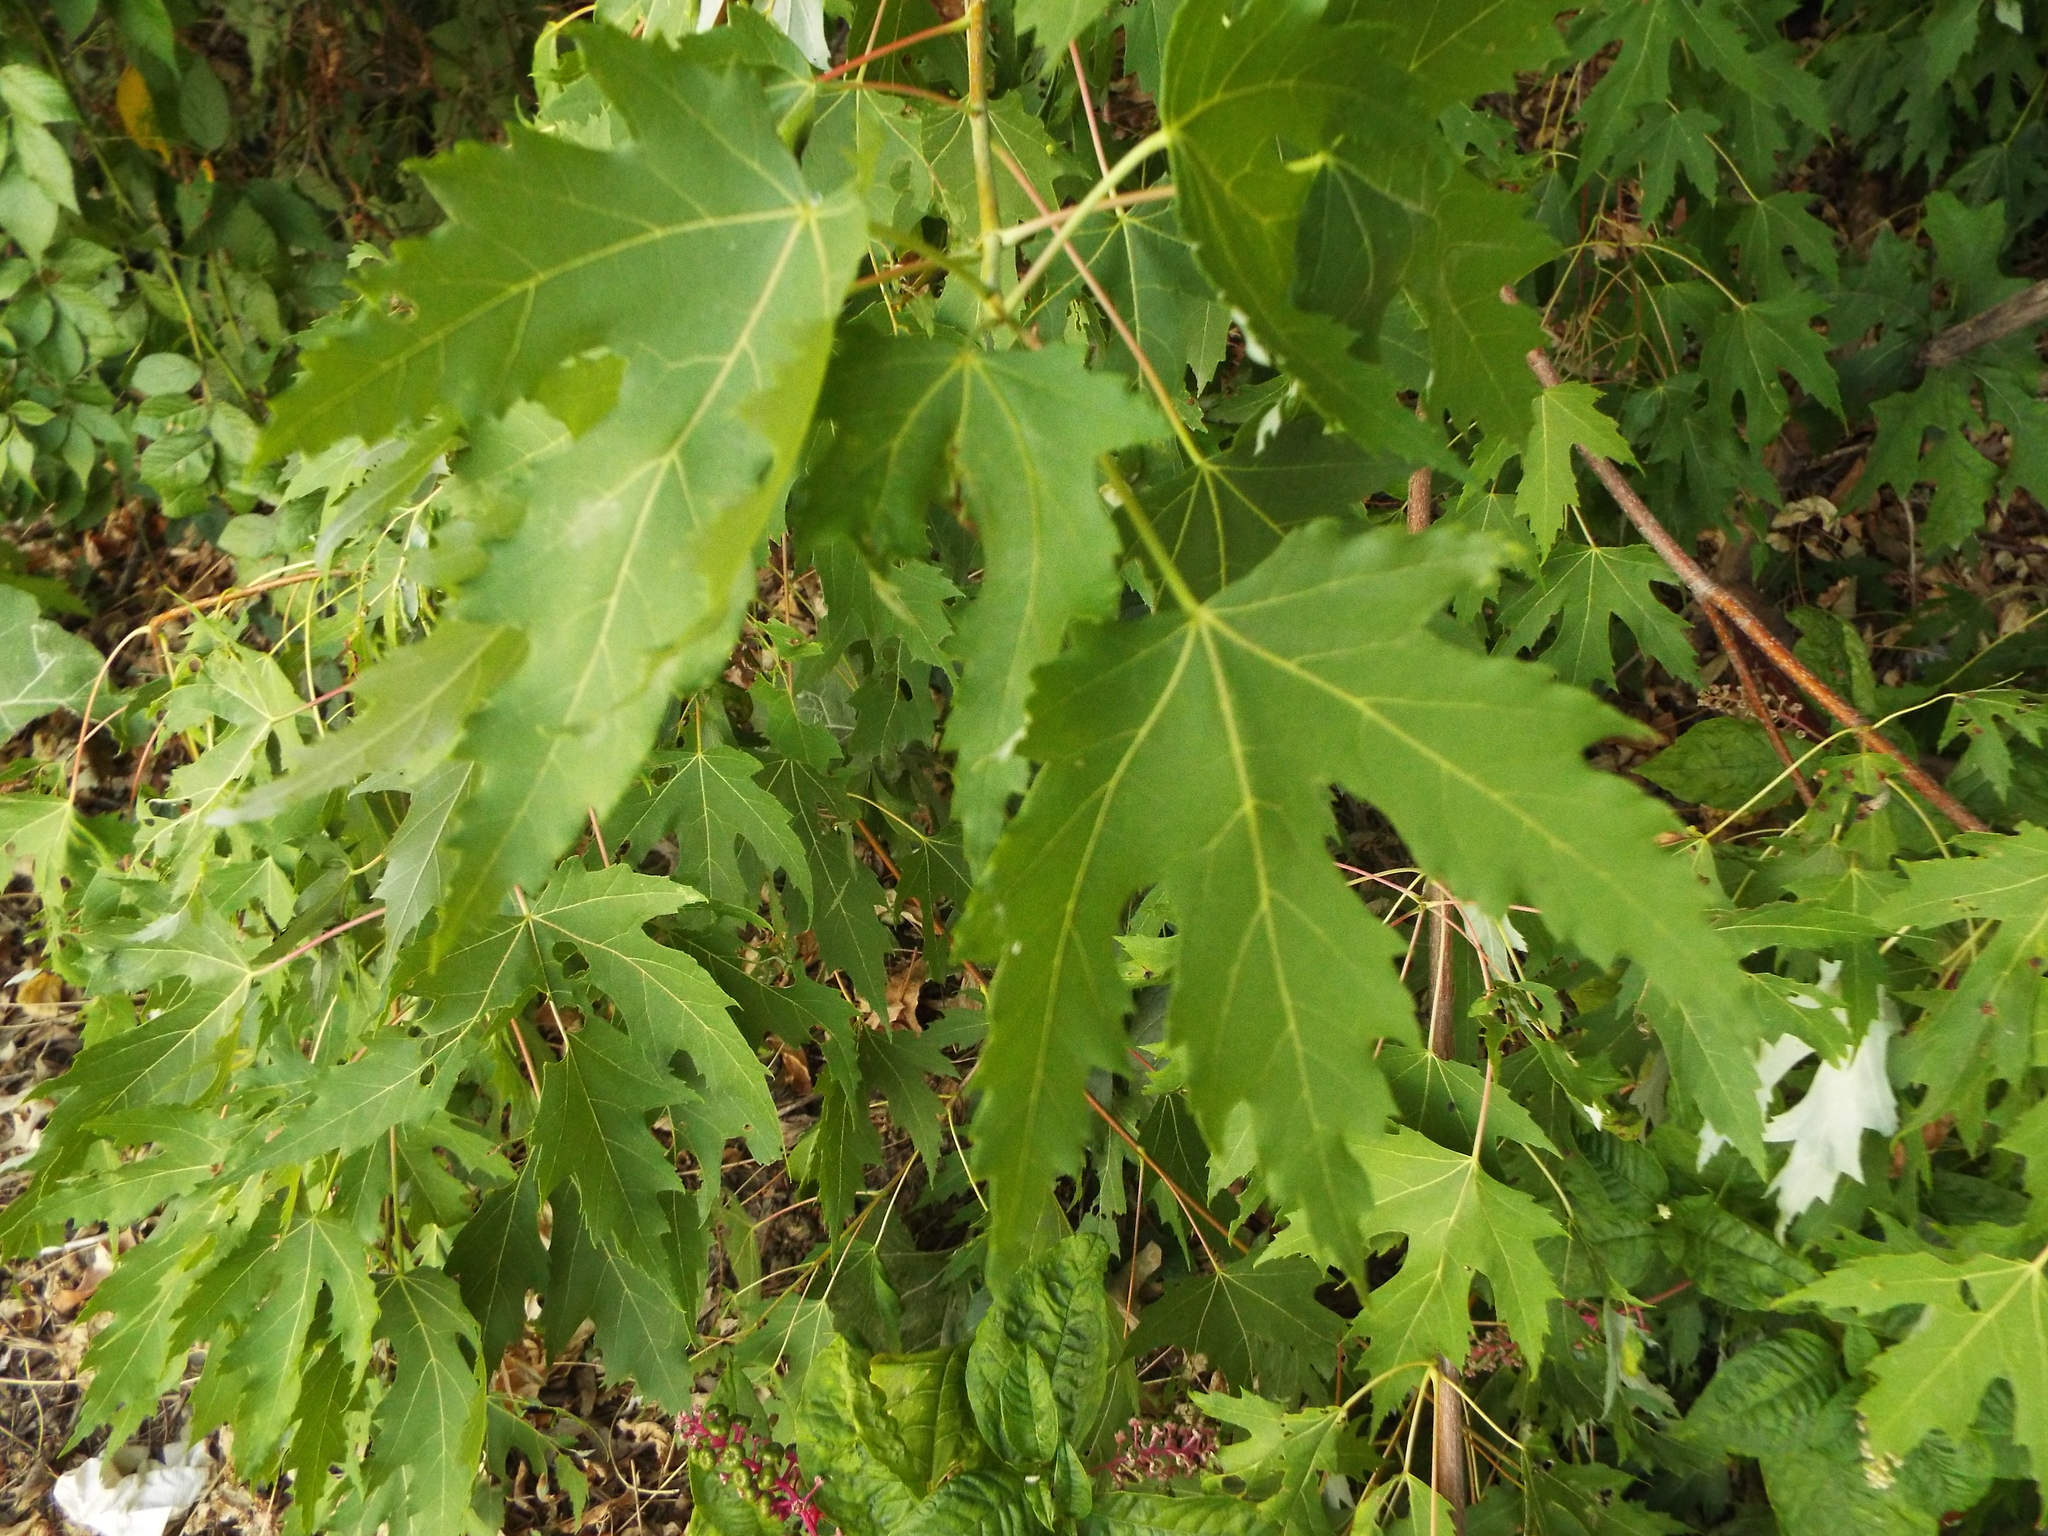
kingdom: Plantae
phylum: Tracheophyta
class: Magnoliopsida
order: Sapindales
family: Sapindaceae
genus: Acer
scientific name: Acer saccharinum
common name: Silver maple
